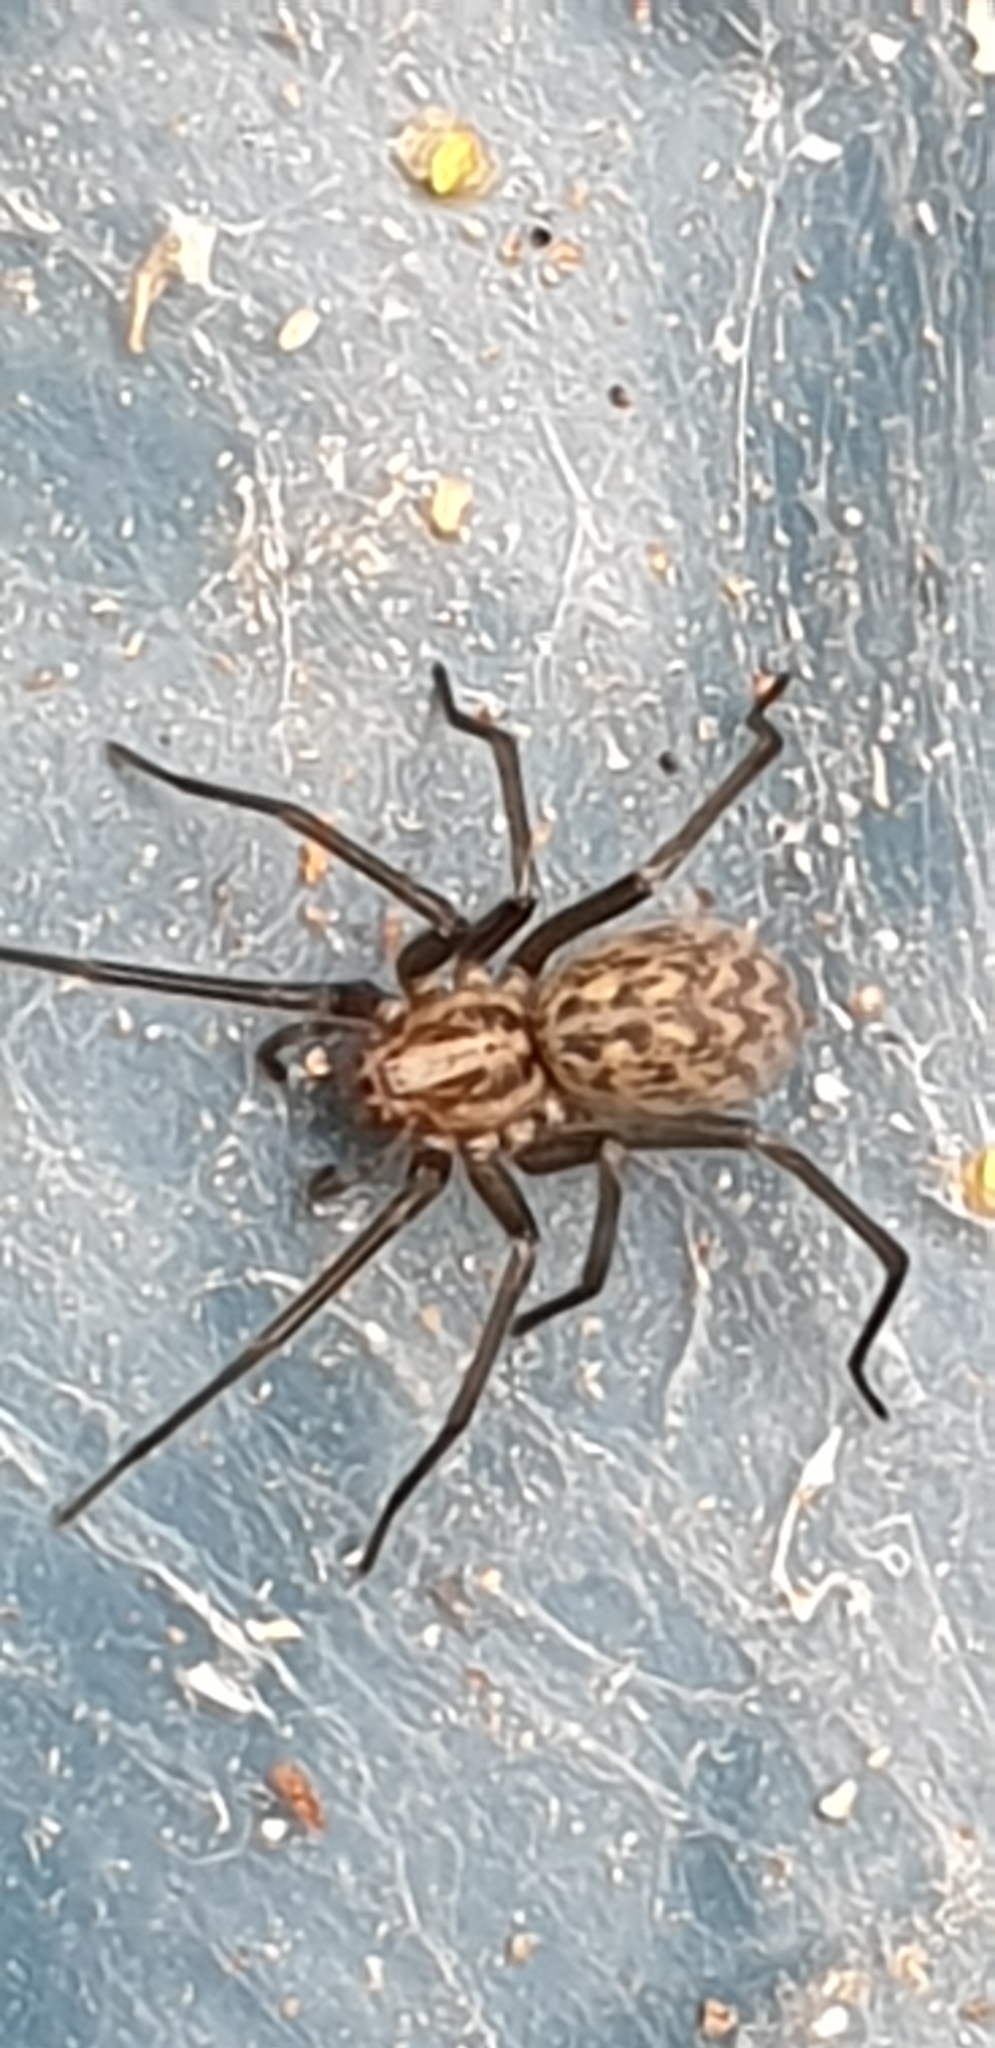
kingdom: Animalia
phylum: Arthropoda
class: Arachnida
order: Araneae
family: Agelenidae
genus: Eratigena
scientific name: Eratigena atrica
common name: Giant house spider
